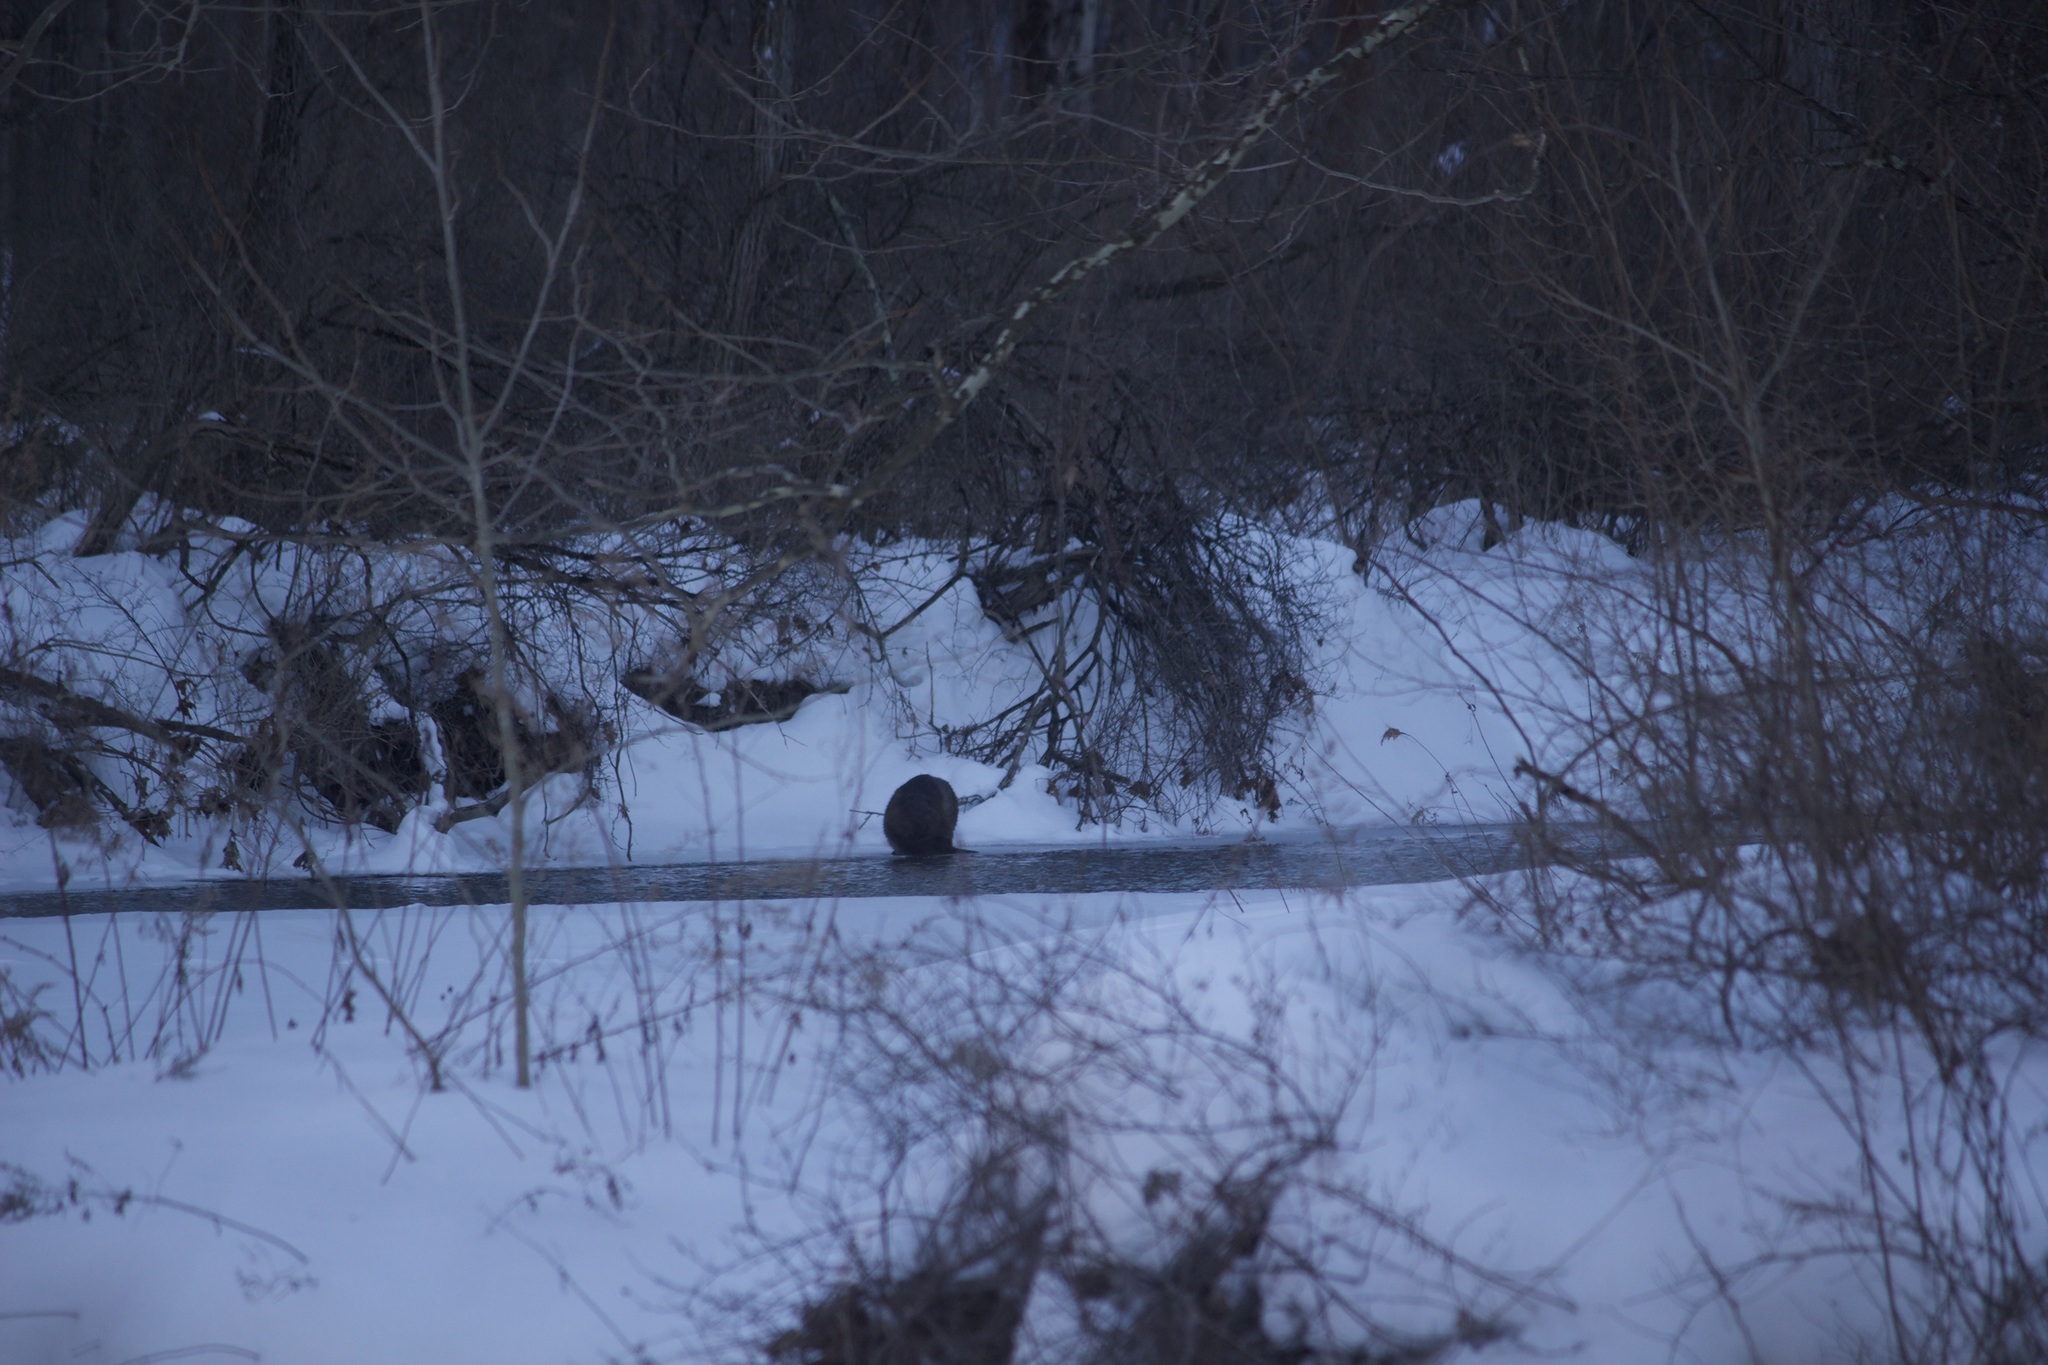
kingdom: Animalia
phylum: Chordata
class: Mammalia
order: Rodentia
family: Castoridae
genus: Castor
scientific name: Castor canadensis
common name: American beaver
